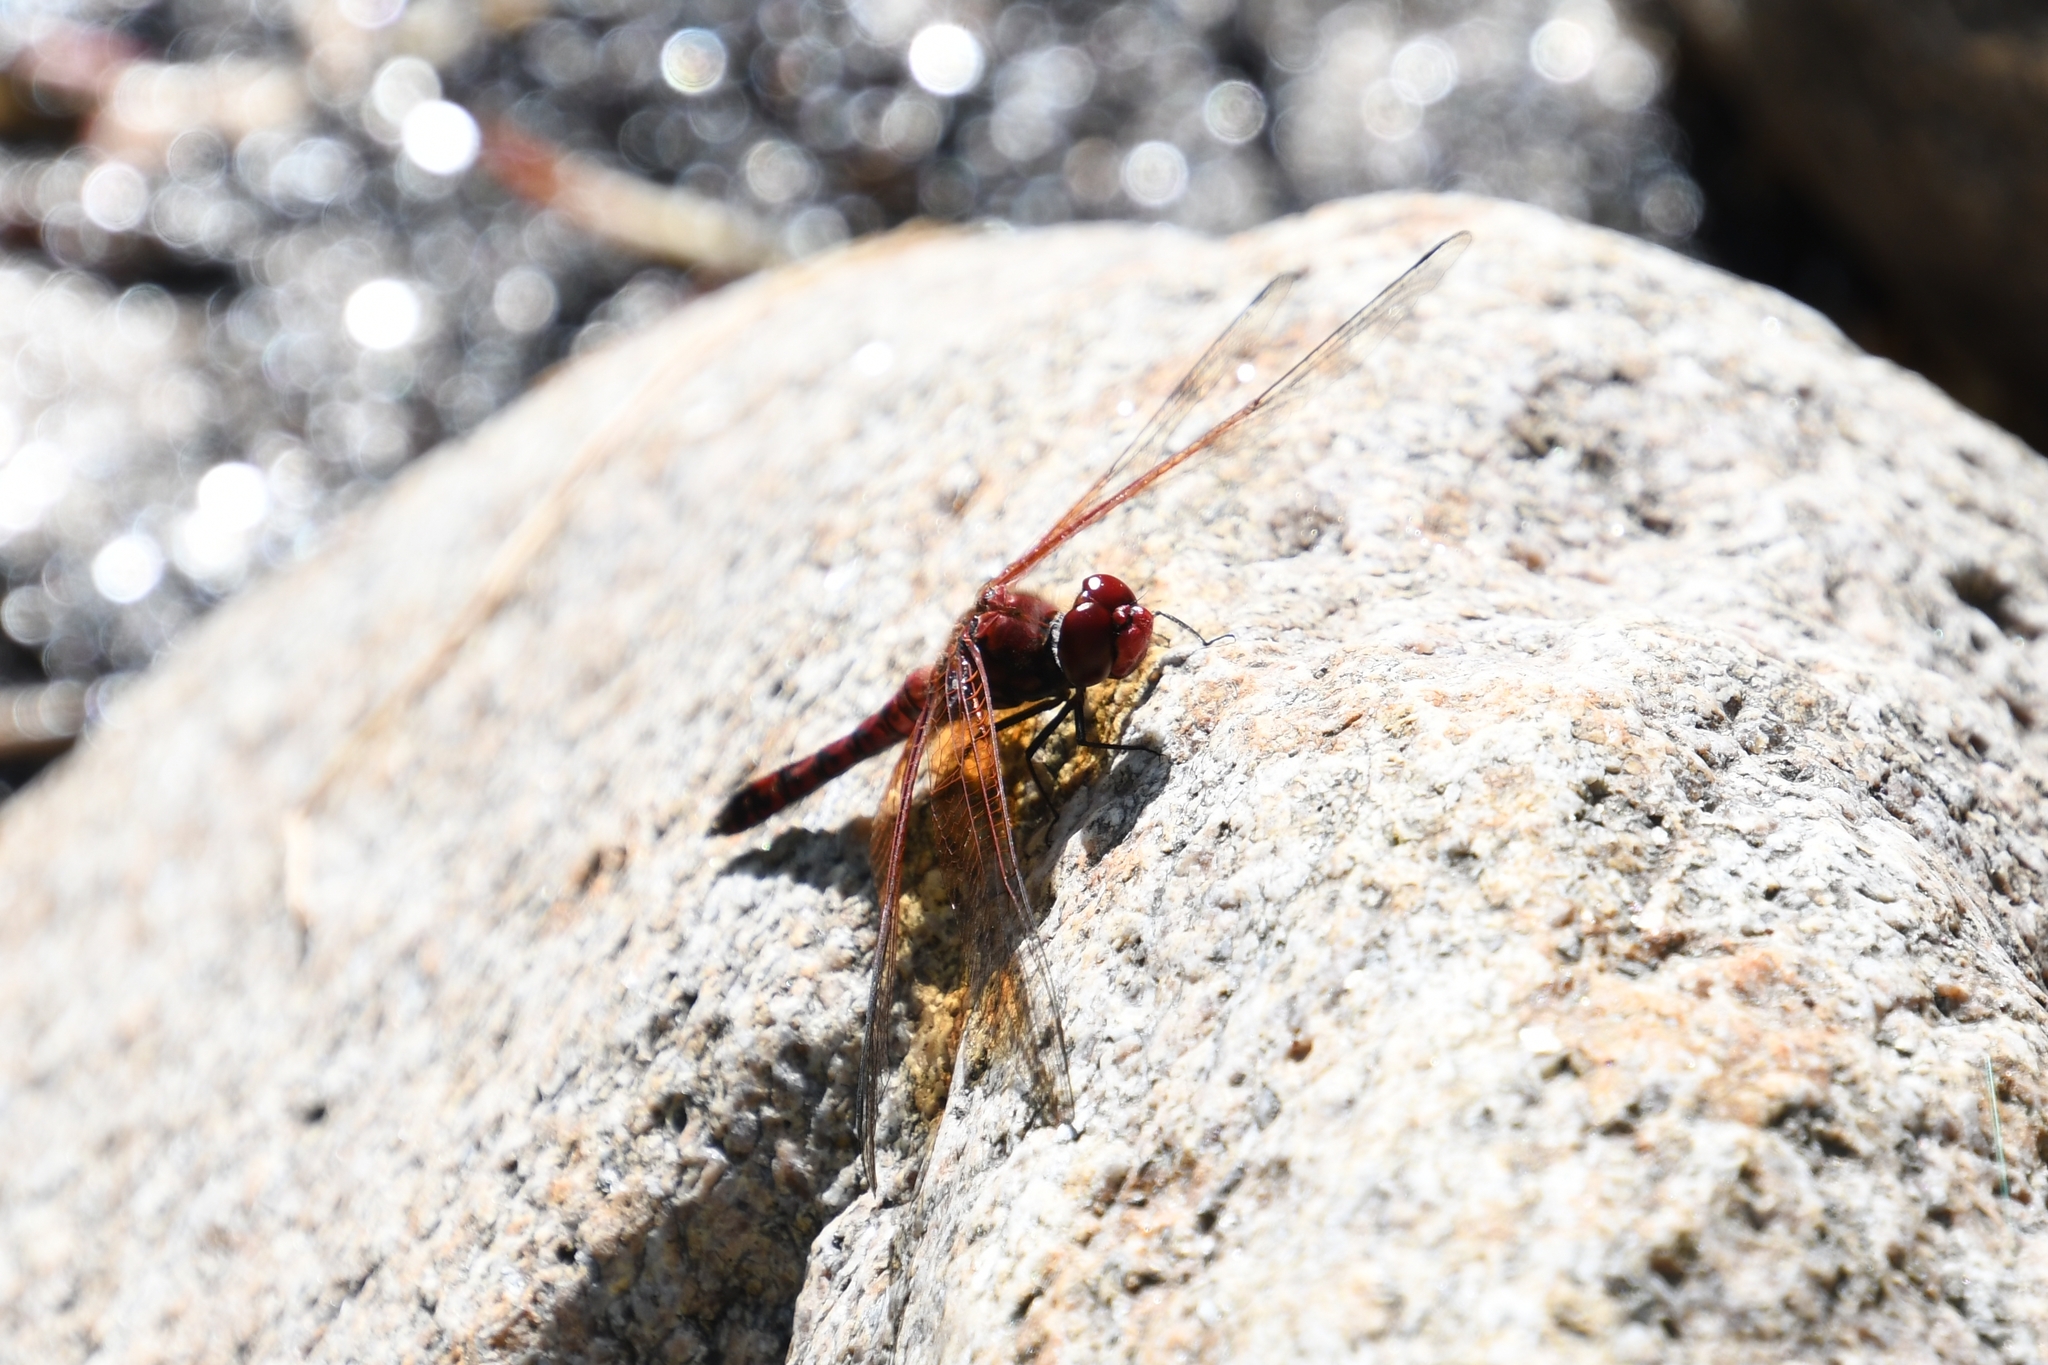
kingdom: Animalia
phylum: Arthropoda
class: Insecta
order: Odonata
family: Libellulidae
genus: Paltothemis
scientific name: Paltothemis lineatipes
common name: Red rock skimmer
